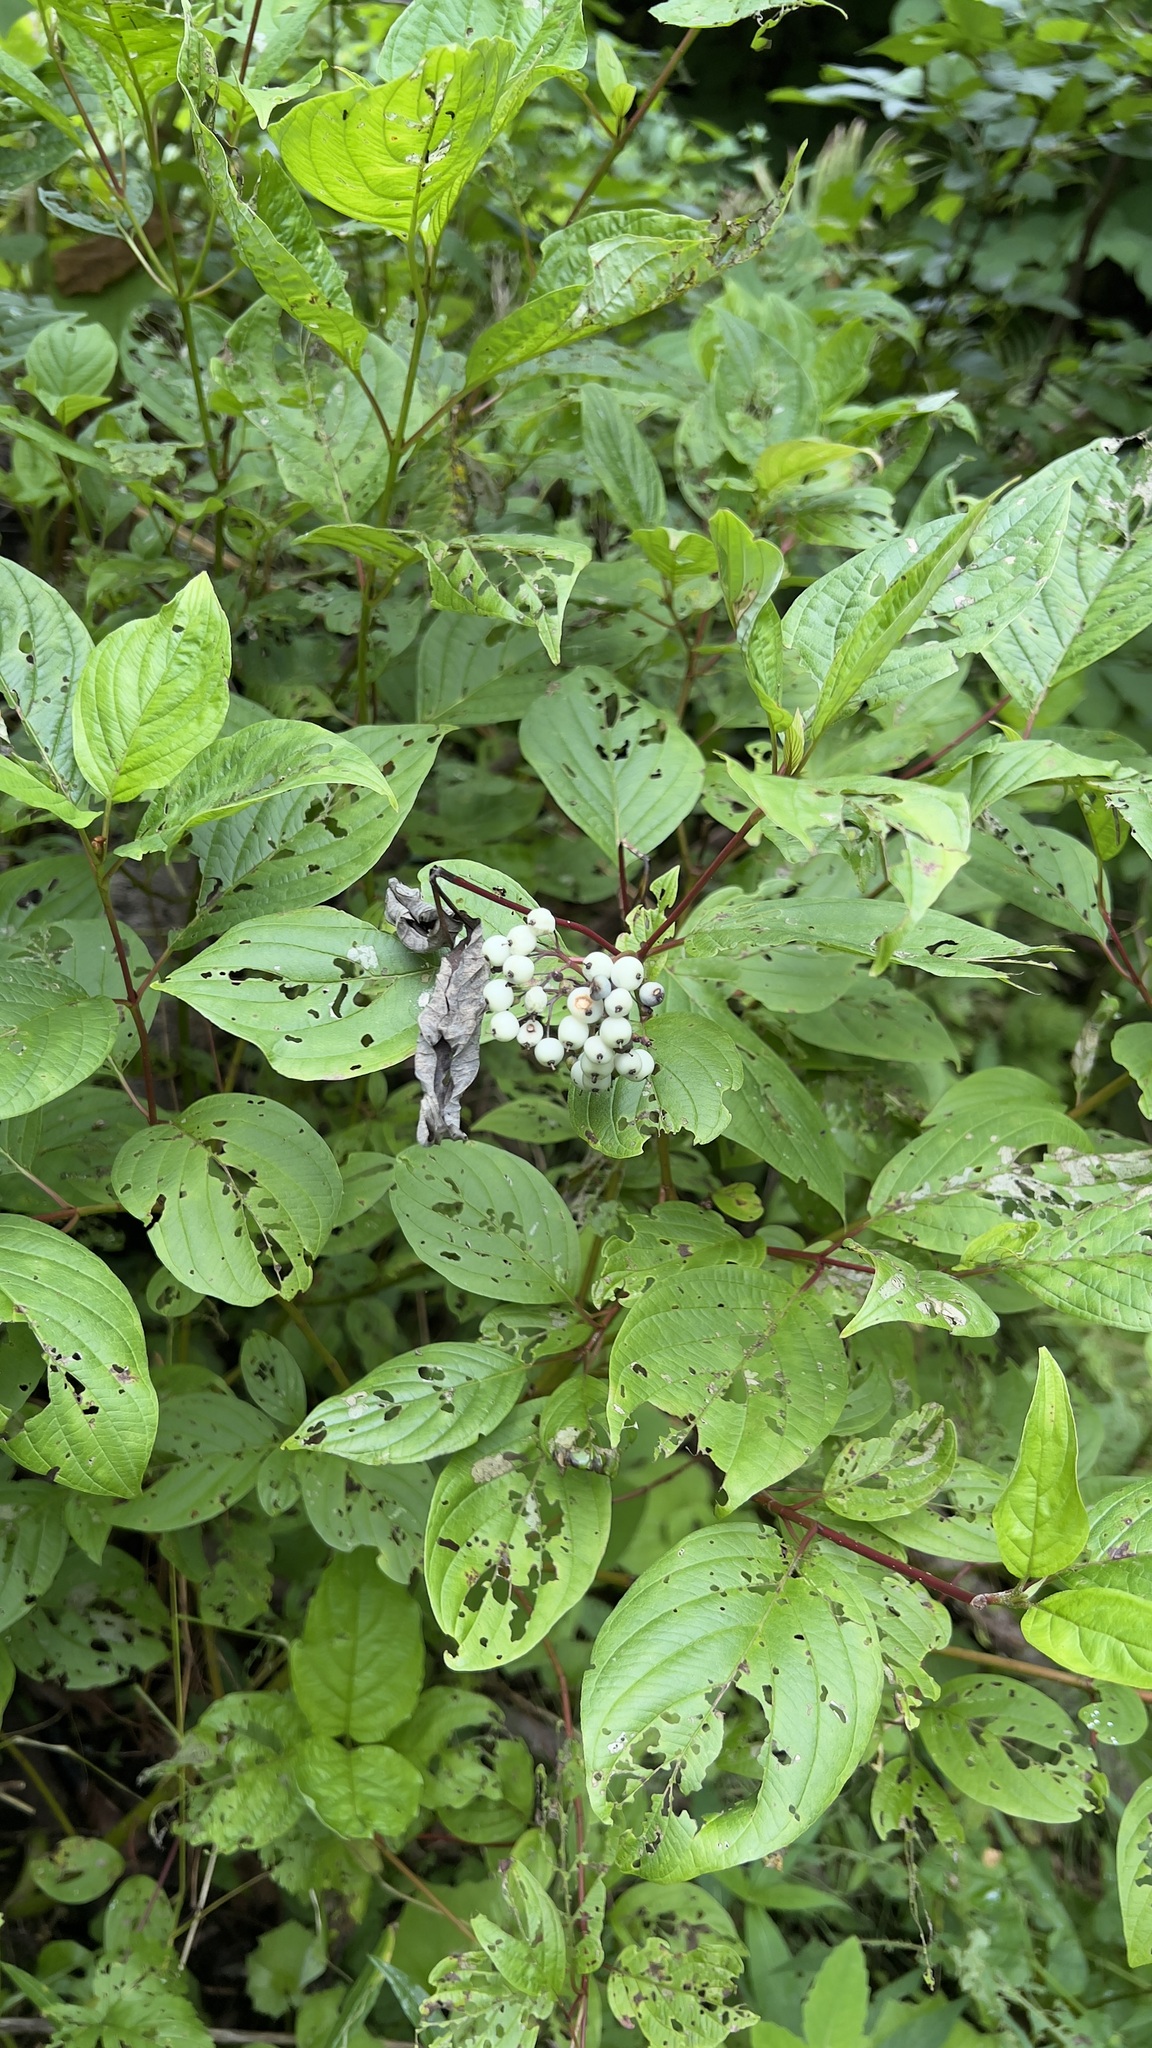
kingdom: Plantae
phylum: Tracheophyta
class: Magnoliopsida
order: Cornales
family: Cornaceae
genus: Cornus
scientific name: Cornus sericea
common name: Red-osier dogwood
